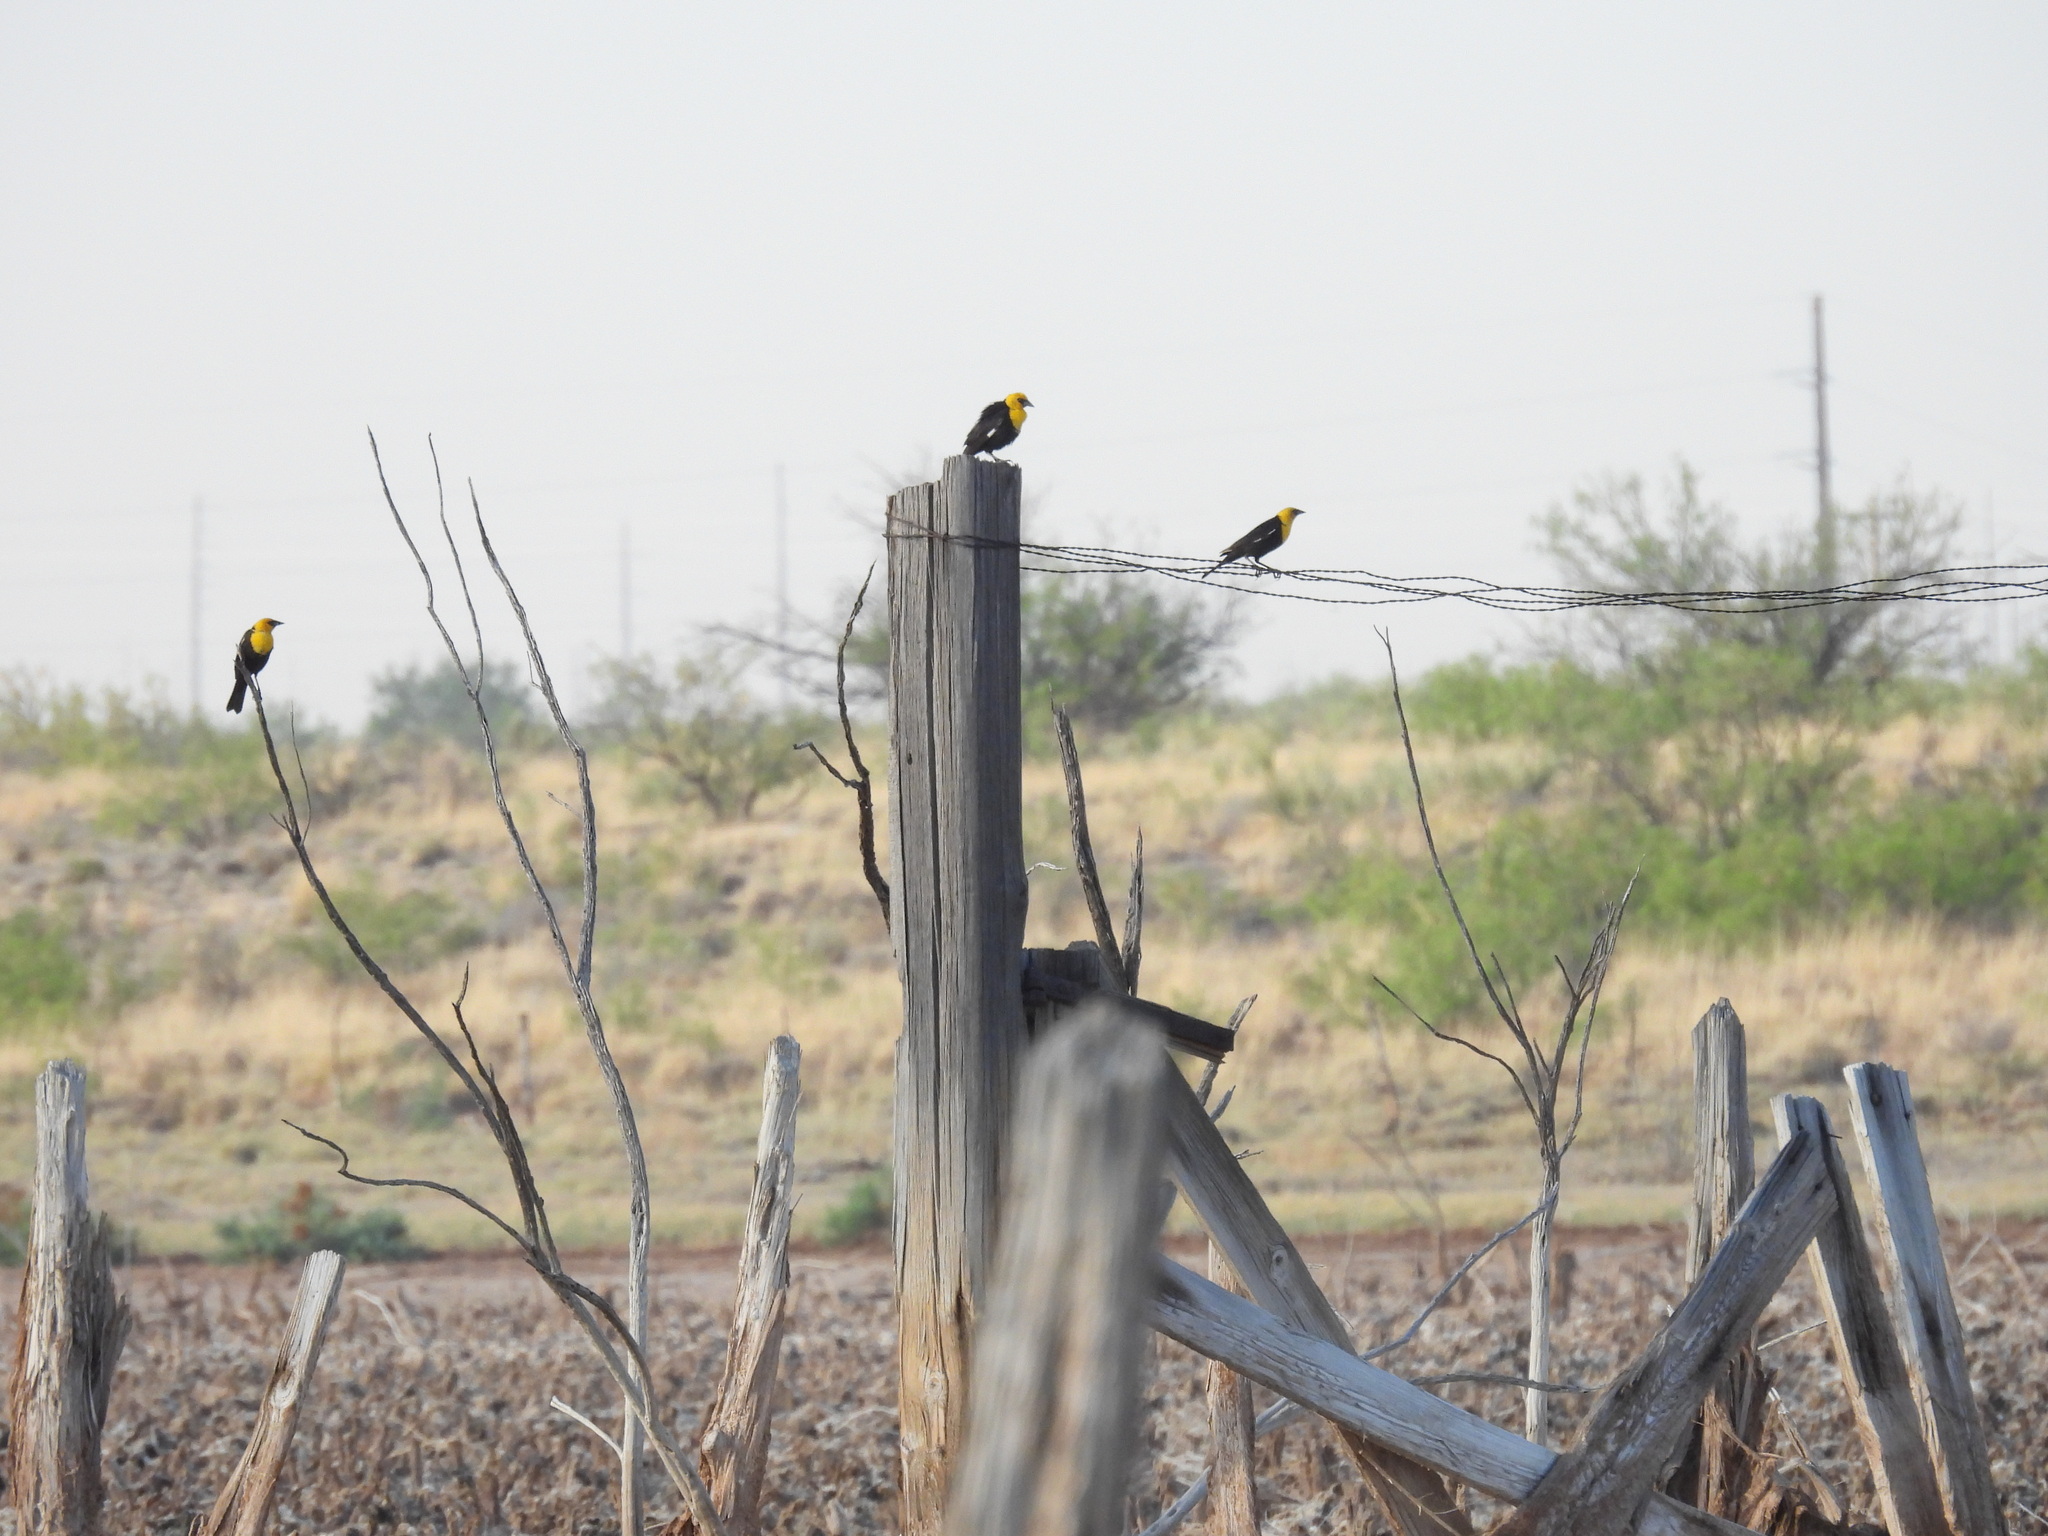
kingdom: Animalia
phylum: Chordata
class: Aves
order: Passeriformes
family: Icteridae
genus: Xanthocephalus
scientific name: Xanthocephalus xanthocephalus
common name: Yellow-headed blackbird
